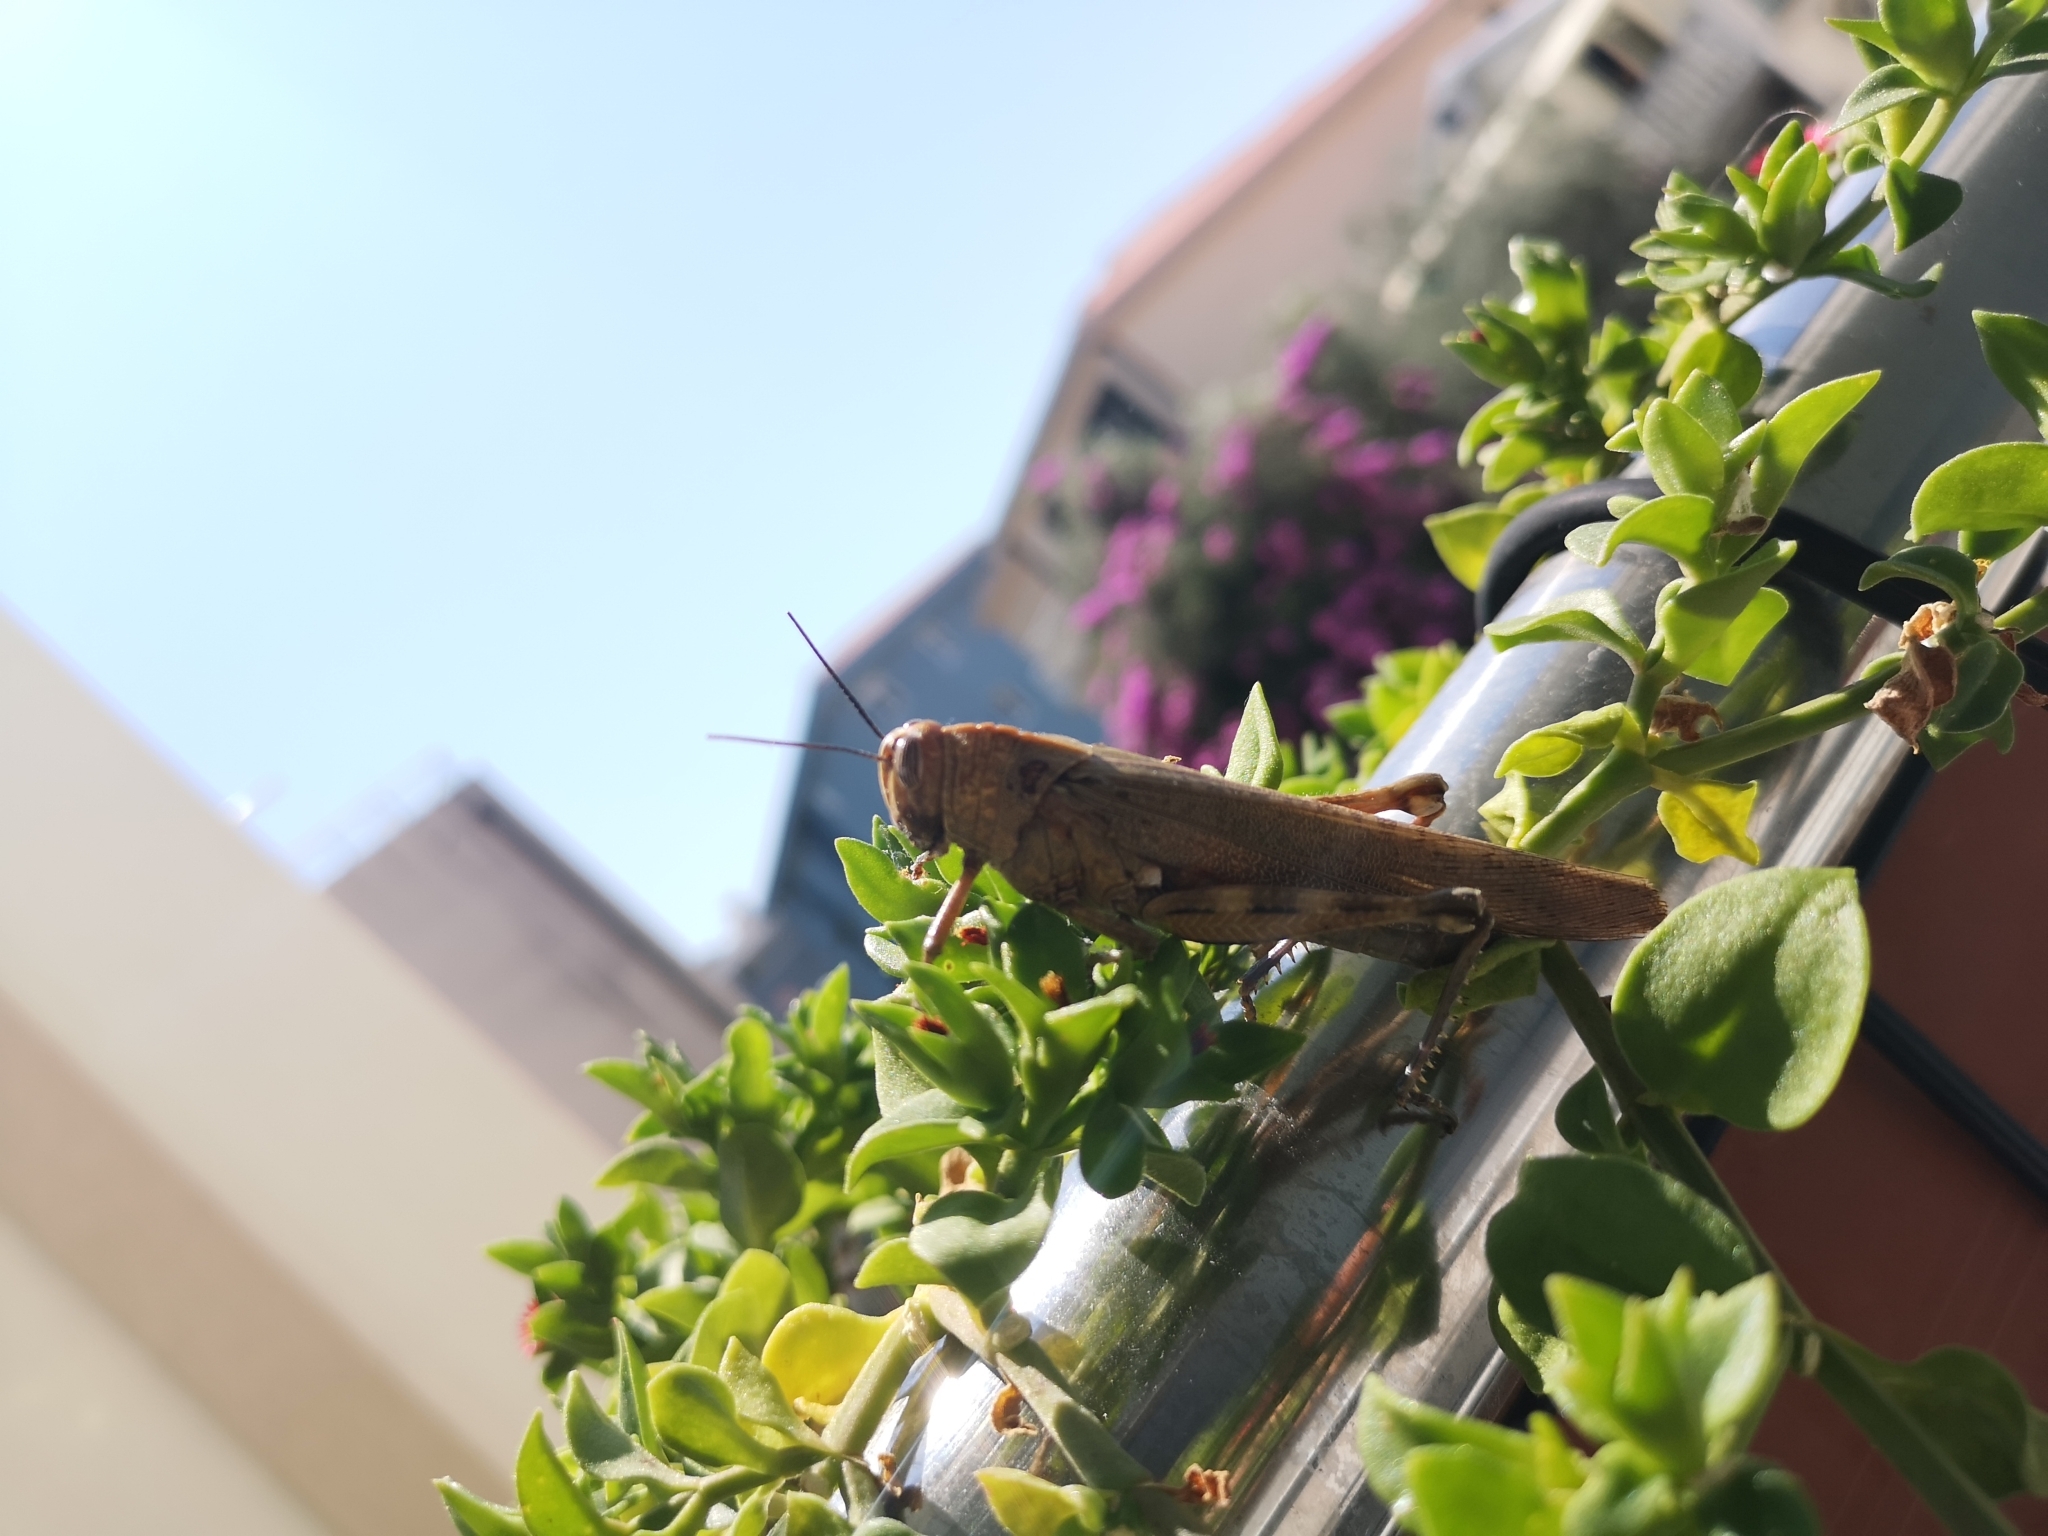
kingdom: Animalia
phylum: Arthropoda
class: Insecta
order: Orthoptera
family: Acrididae
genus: Anacridium
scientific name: Anacridium aegyptium
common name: Egyptian grasshopper
